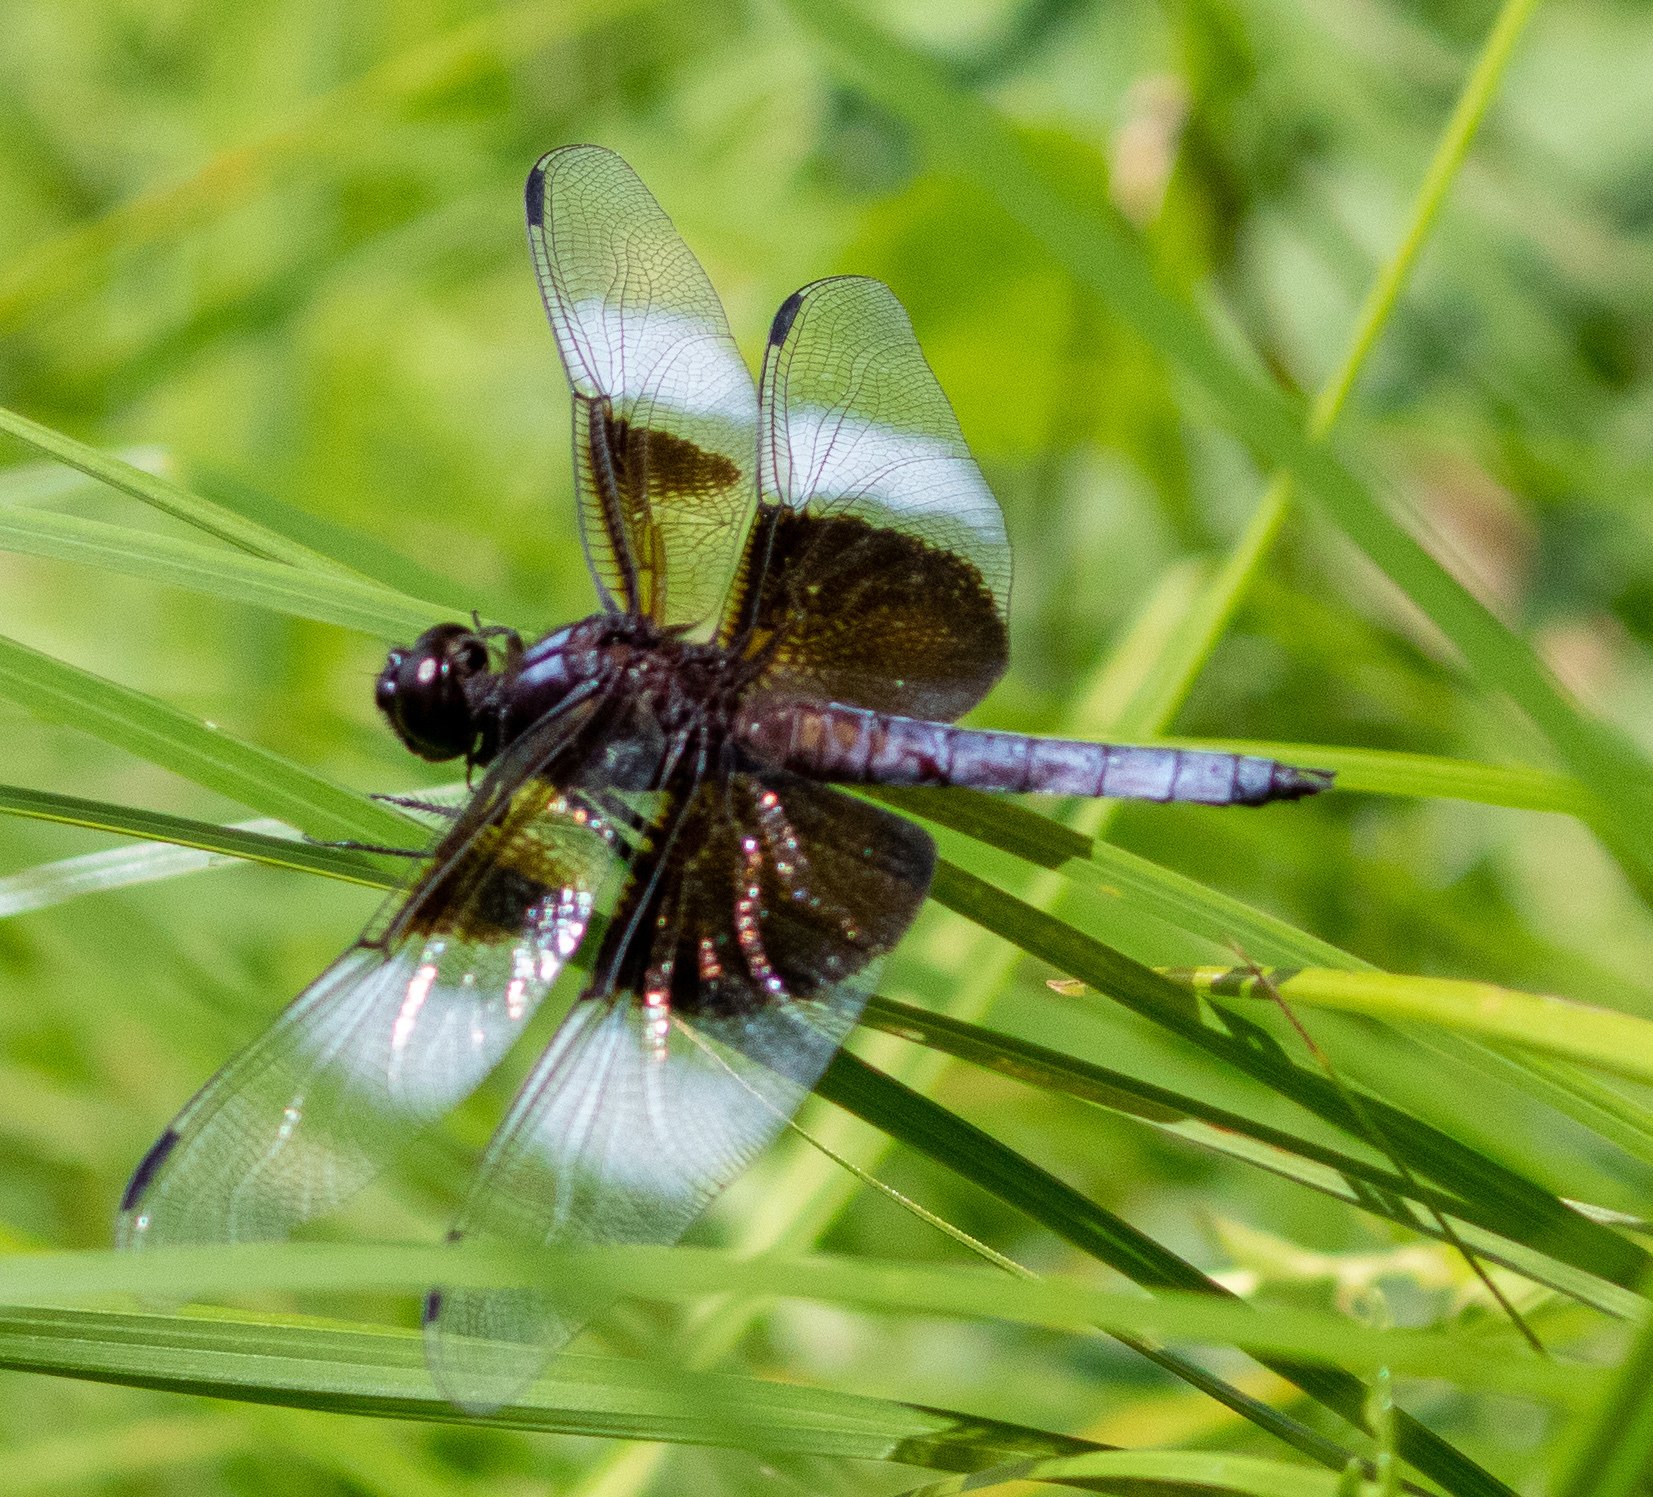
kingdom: Animalia
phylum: Arthropoda
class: Insecta
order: Odonata
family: Libellulidae
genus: Libellula
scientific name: Libellula luctuosa
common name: Widow skimmer
